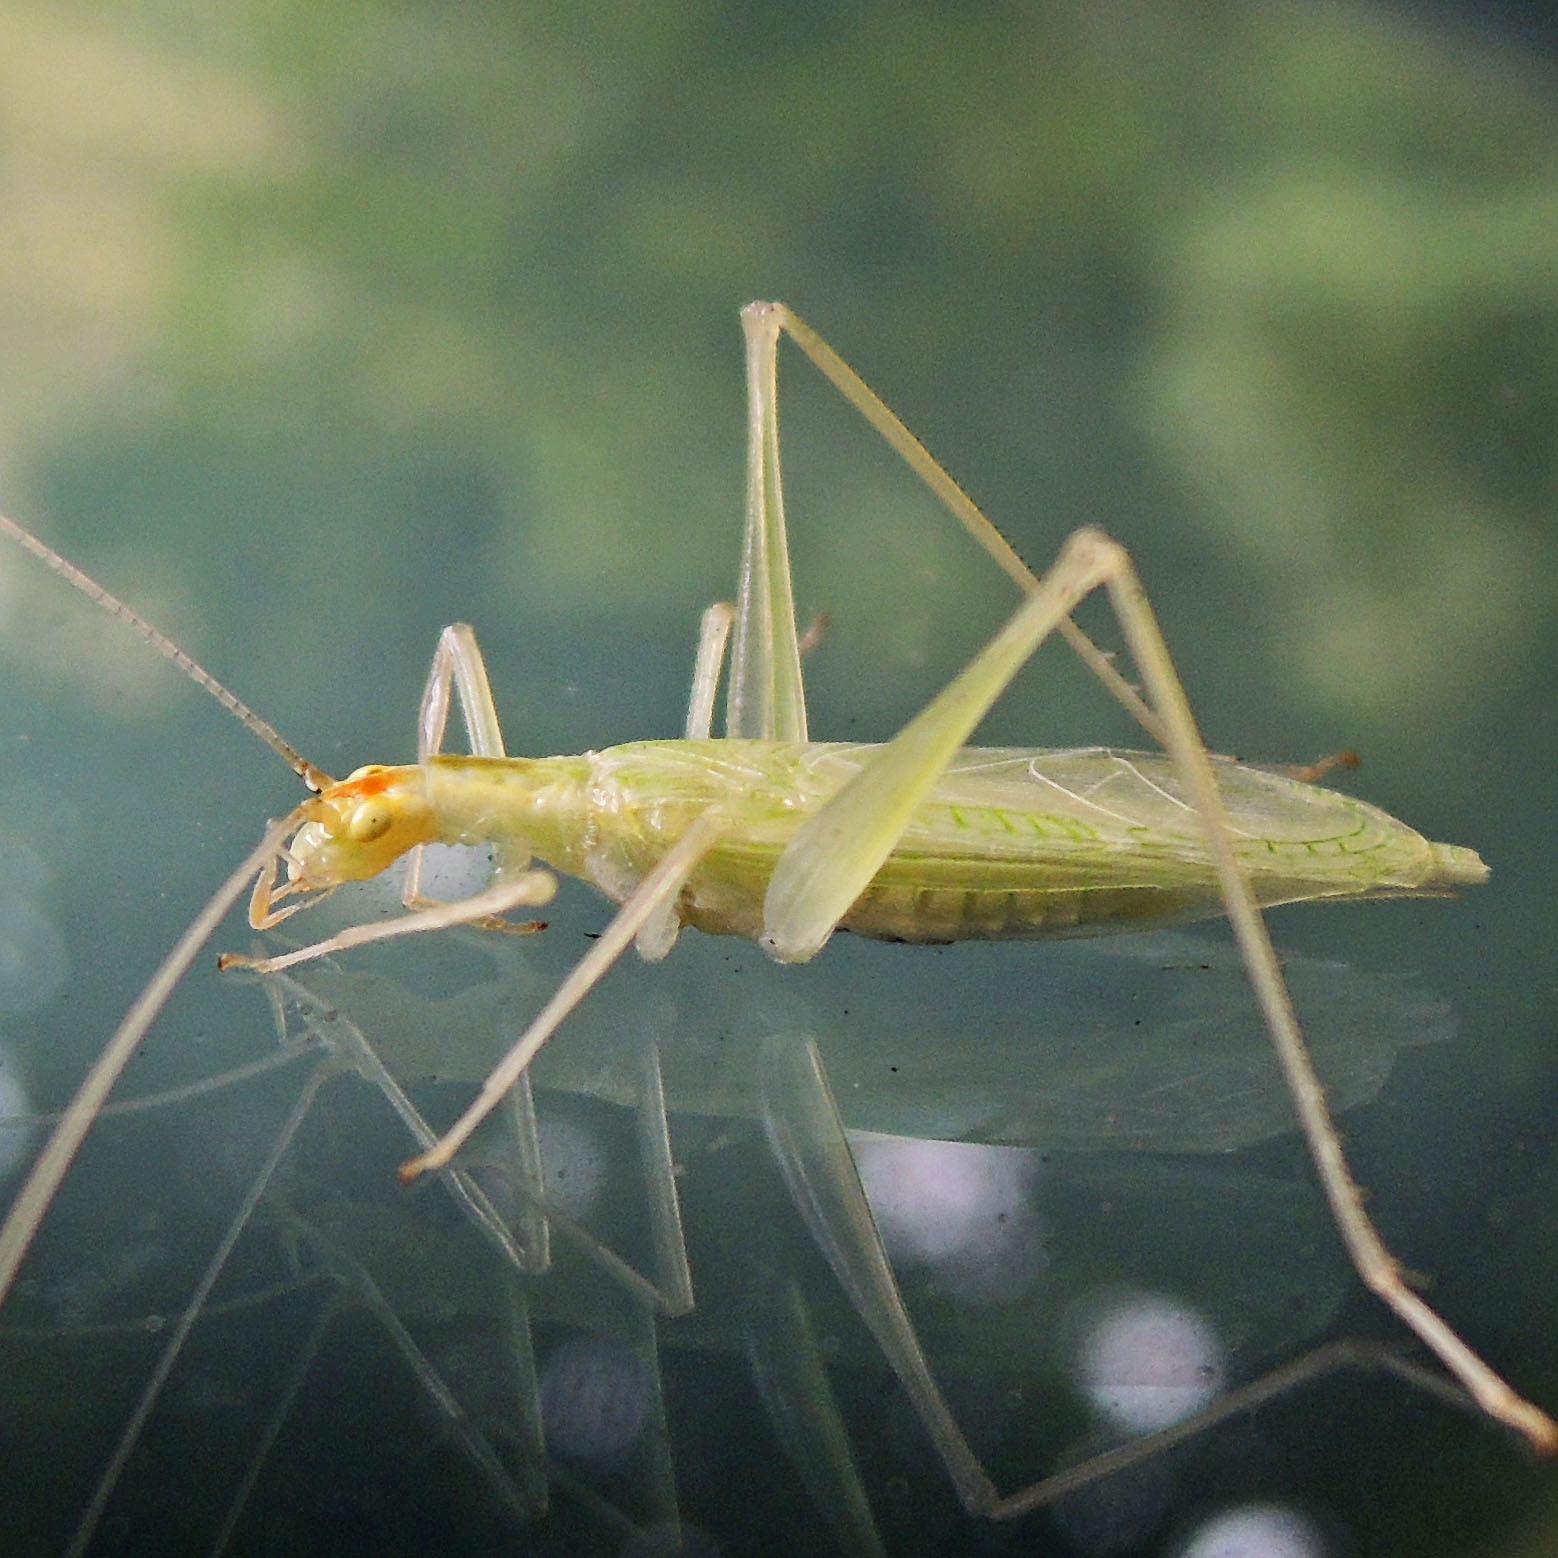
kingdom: Animalia
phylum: Arthropoda
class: Insecta
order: Orthoptera
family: Gryllidae
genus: Oecanthus
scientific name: Oecanthus niveus
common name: Narrow-winged tree cricket
